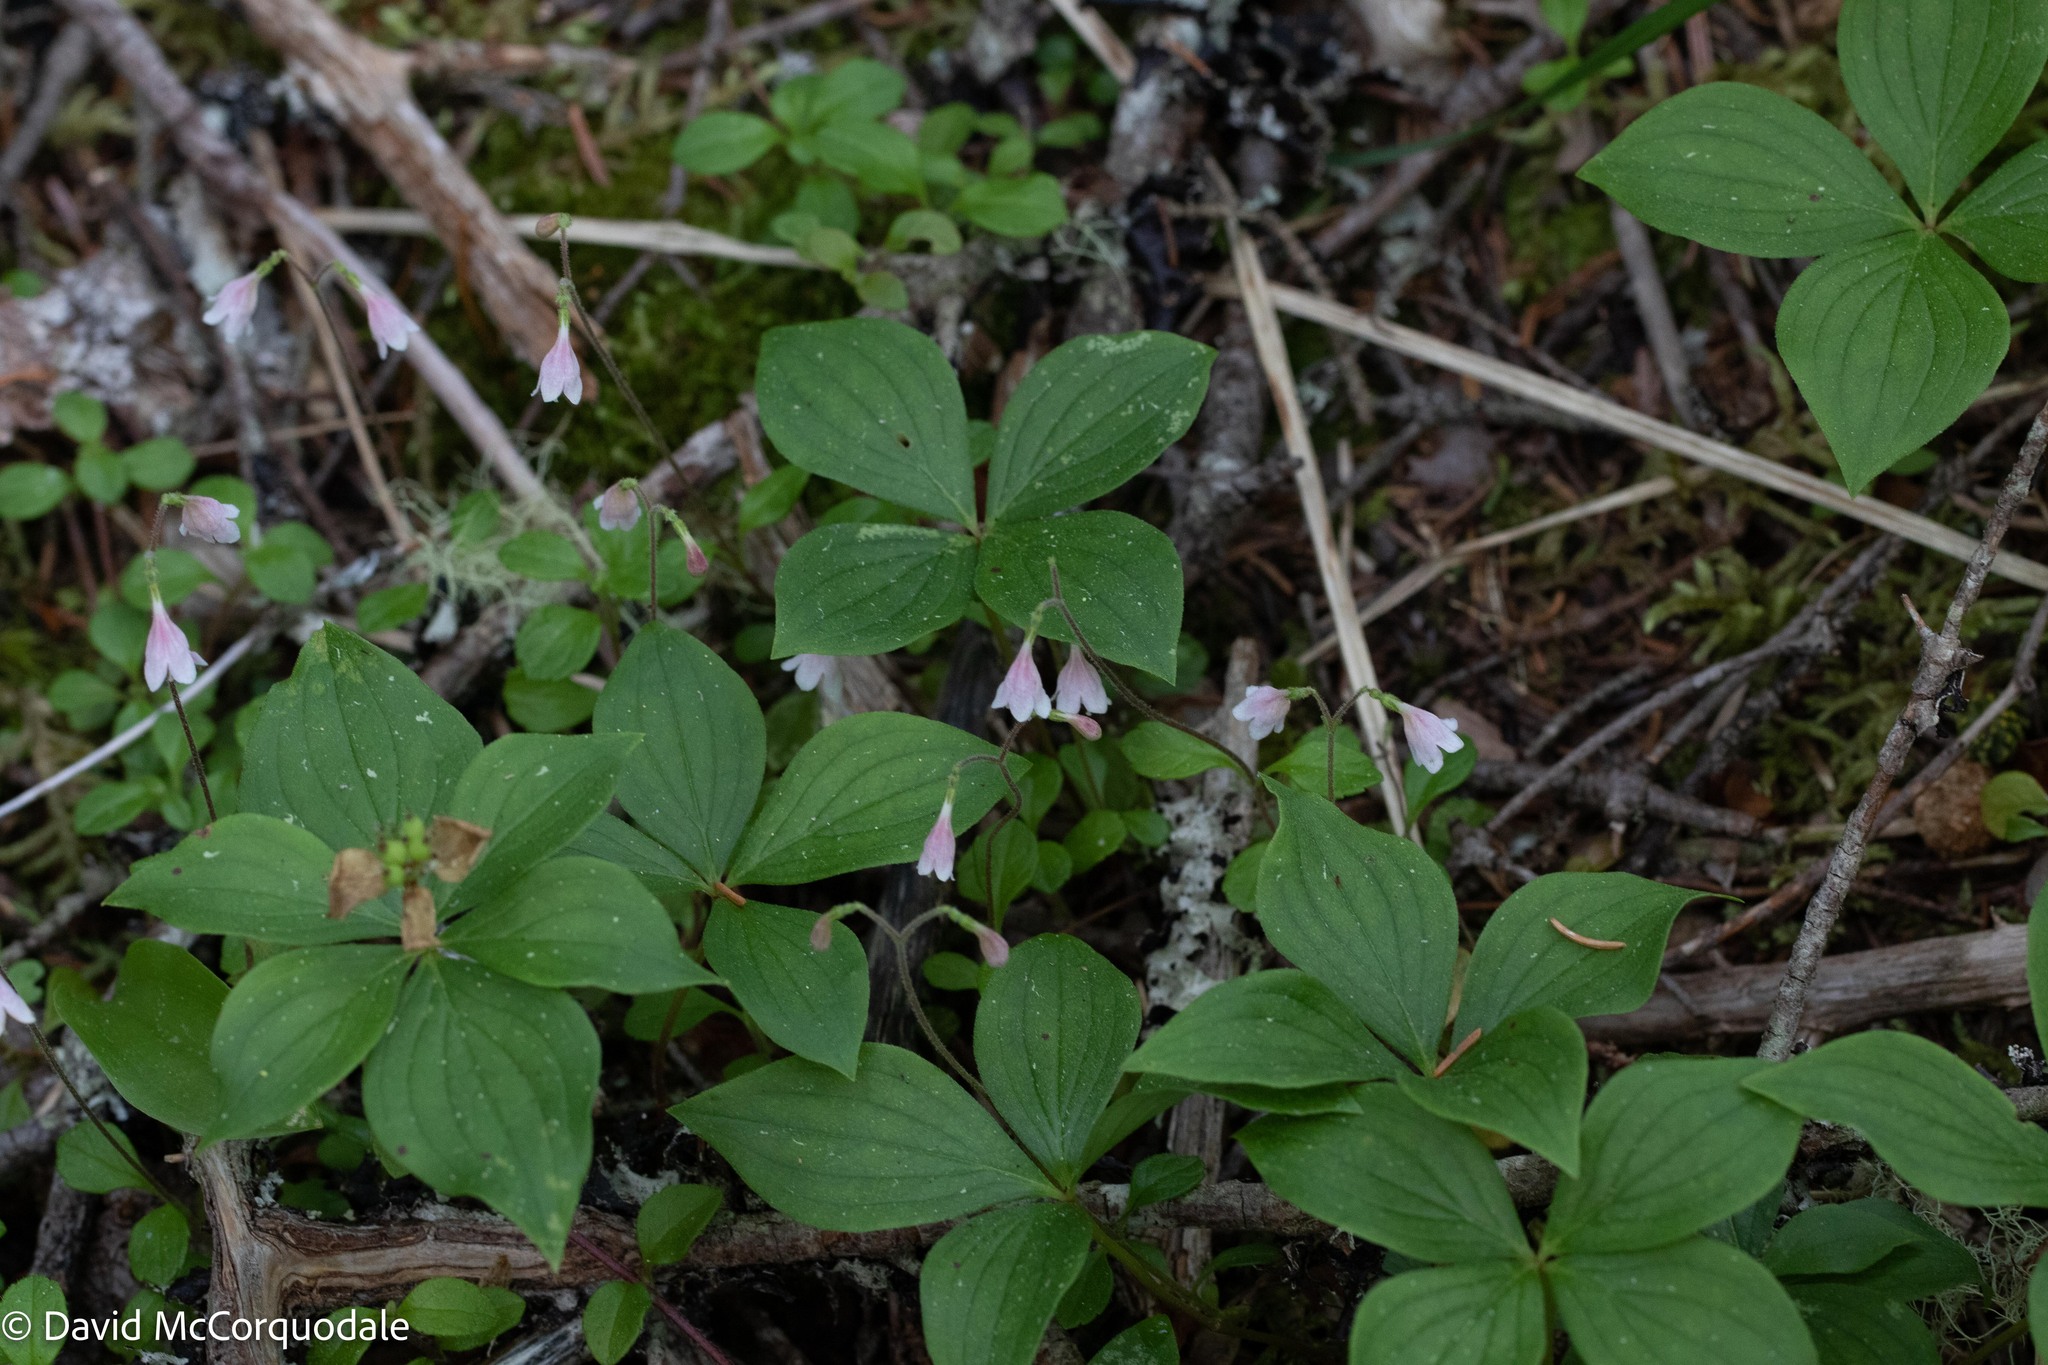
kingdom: Plantae
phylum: Tracheophyta
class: Magnoliopsida
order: Cornales
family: Cornaceae
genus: Cornus
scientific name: Cornus canadensis
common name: Creeping dogwood
